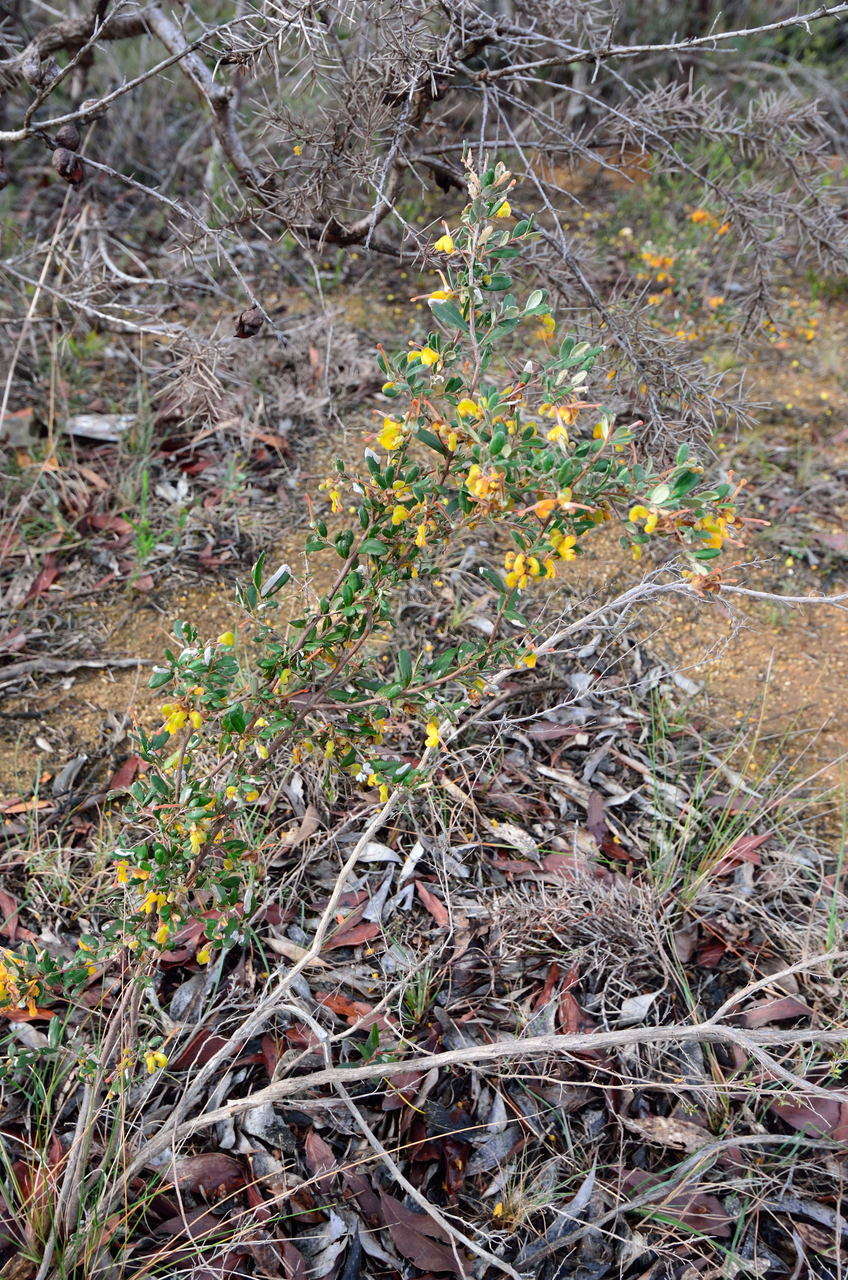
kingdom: Plantae
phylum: Tracheophyta
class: Magnoliopsida
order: Proteales
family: Proteaceae
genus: Grevillea
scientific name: Grevillea chrysophaea
